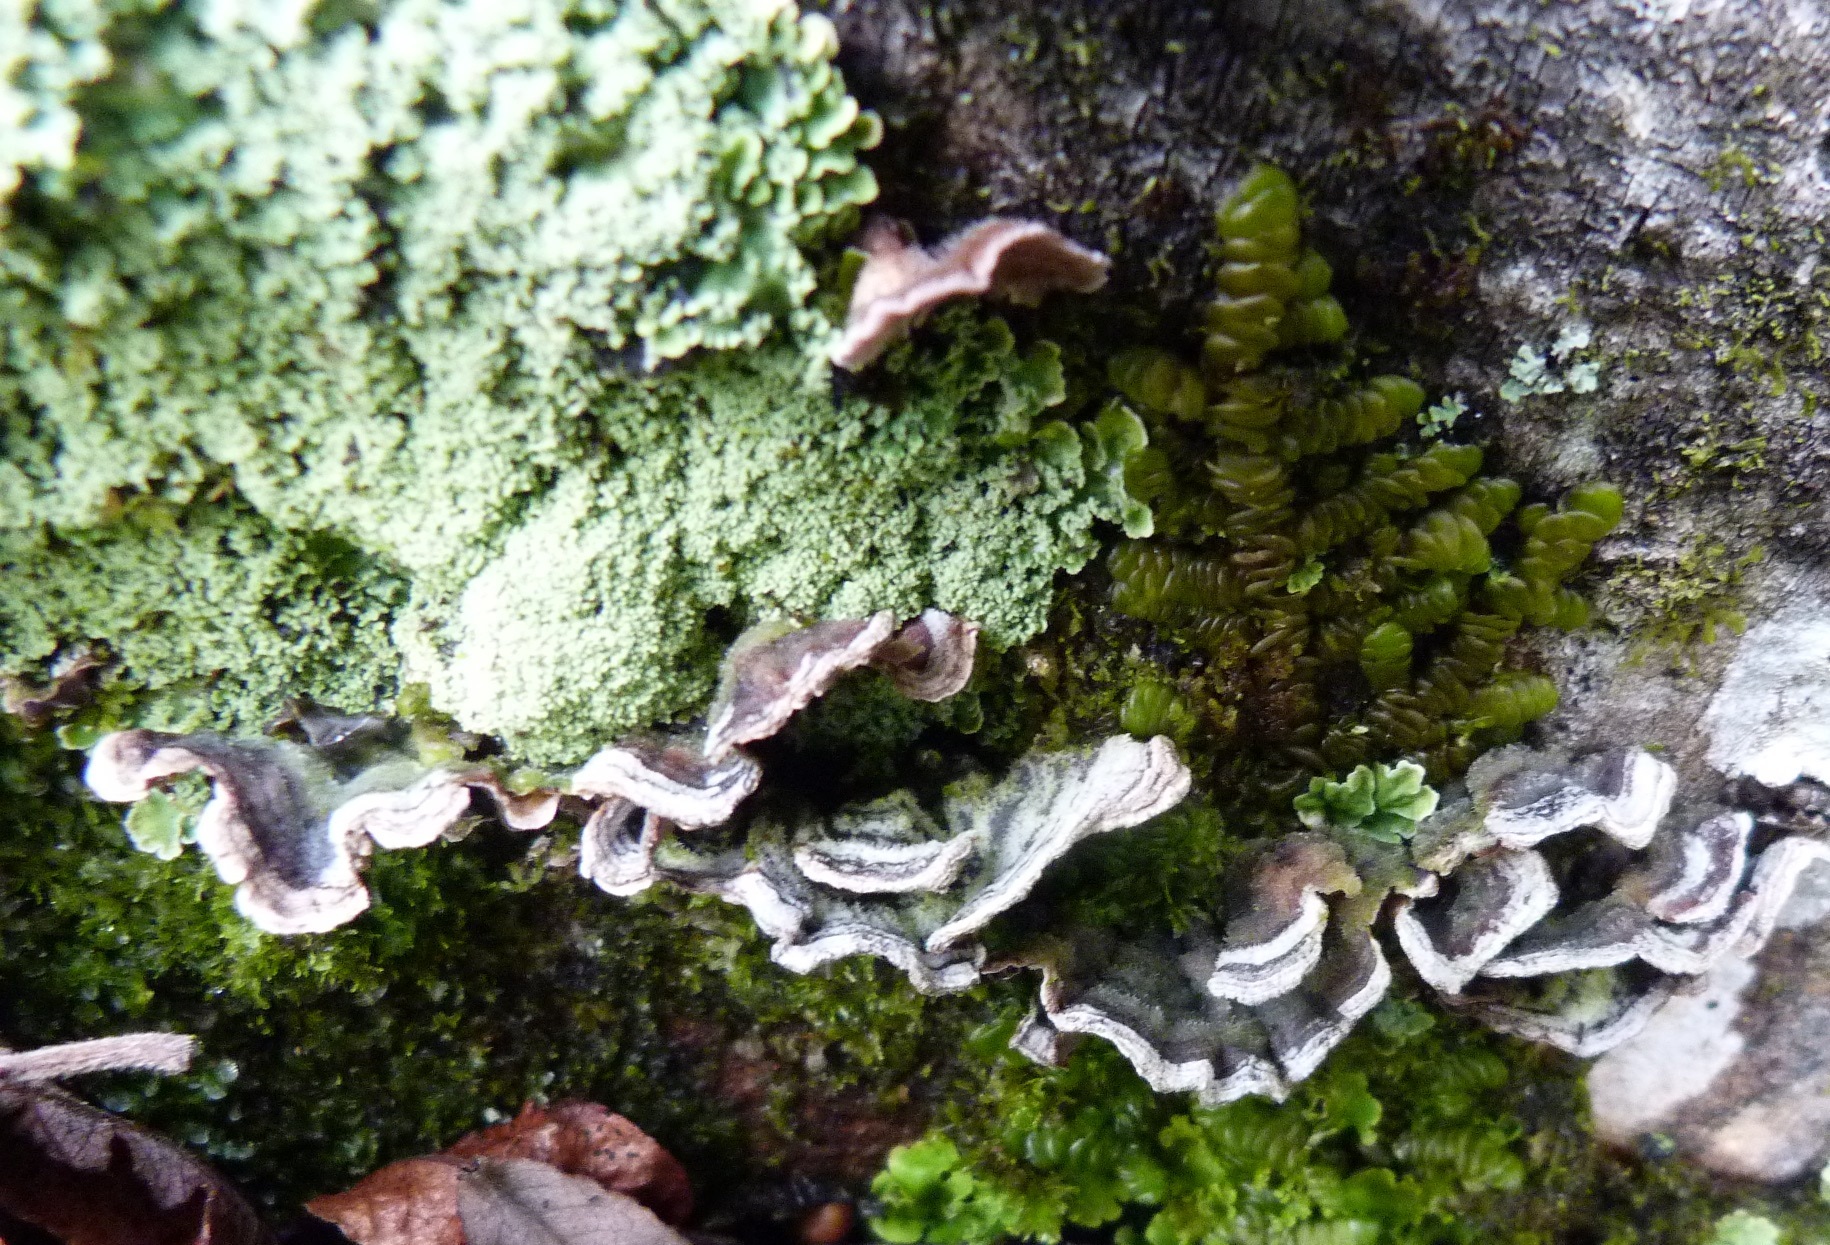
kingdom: Fungi
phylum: Basidiomycota
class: Agaricomycetes
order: Polyporales
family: Polyporaceae
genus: Trametes
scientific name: Trametes versicolor
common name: Turkeytail
